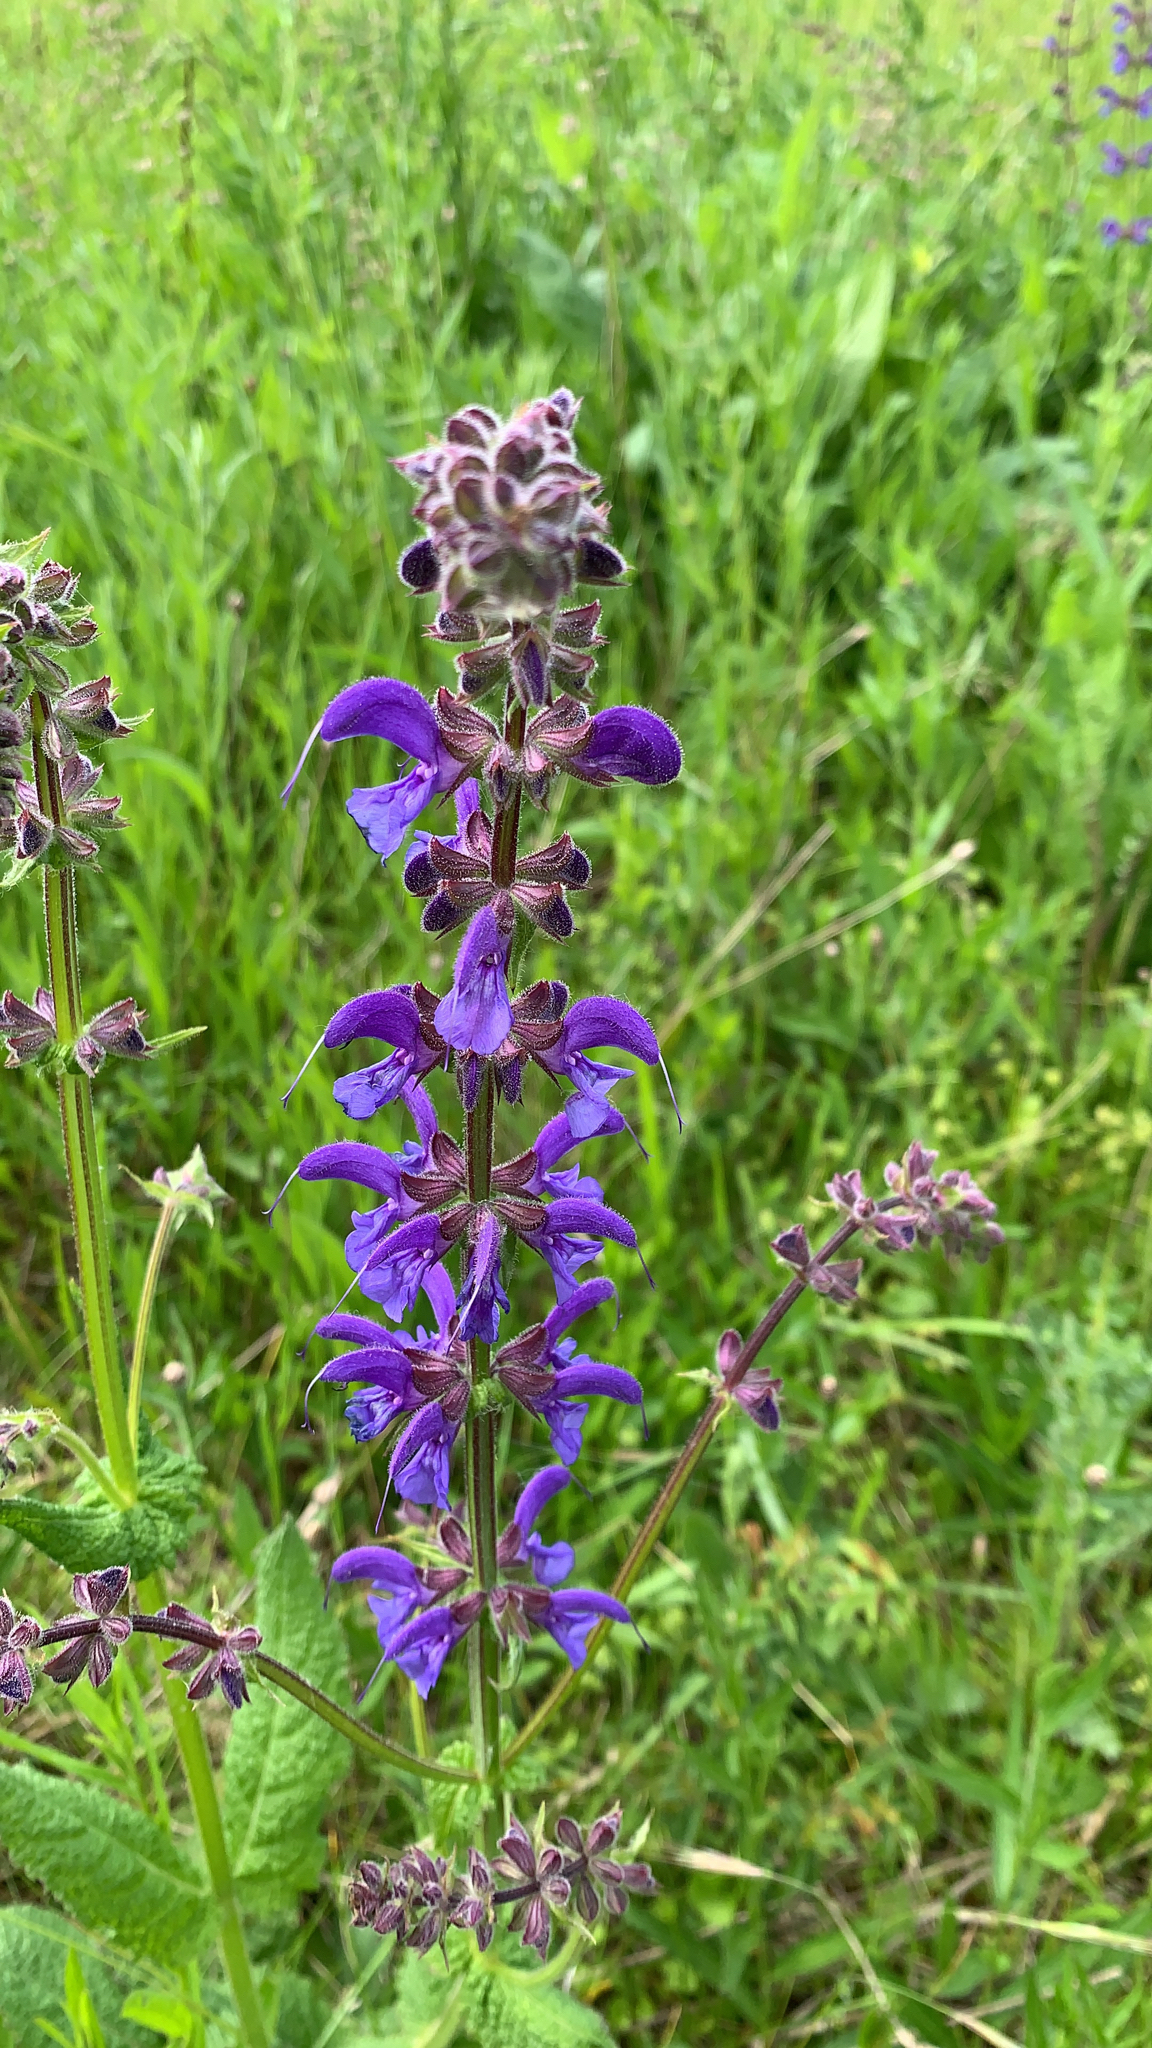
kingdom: Plantae
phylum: Tracheophyta
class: Magnoliopsida
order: Lamiales
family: Lamiaceae
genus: Salvia
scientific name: Salvia pratensis
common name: Meadow sage
